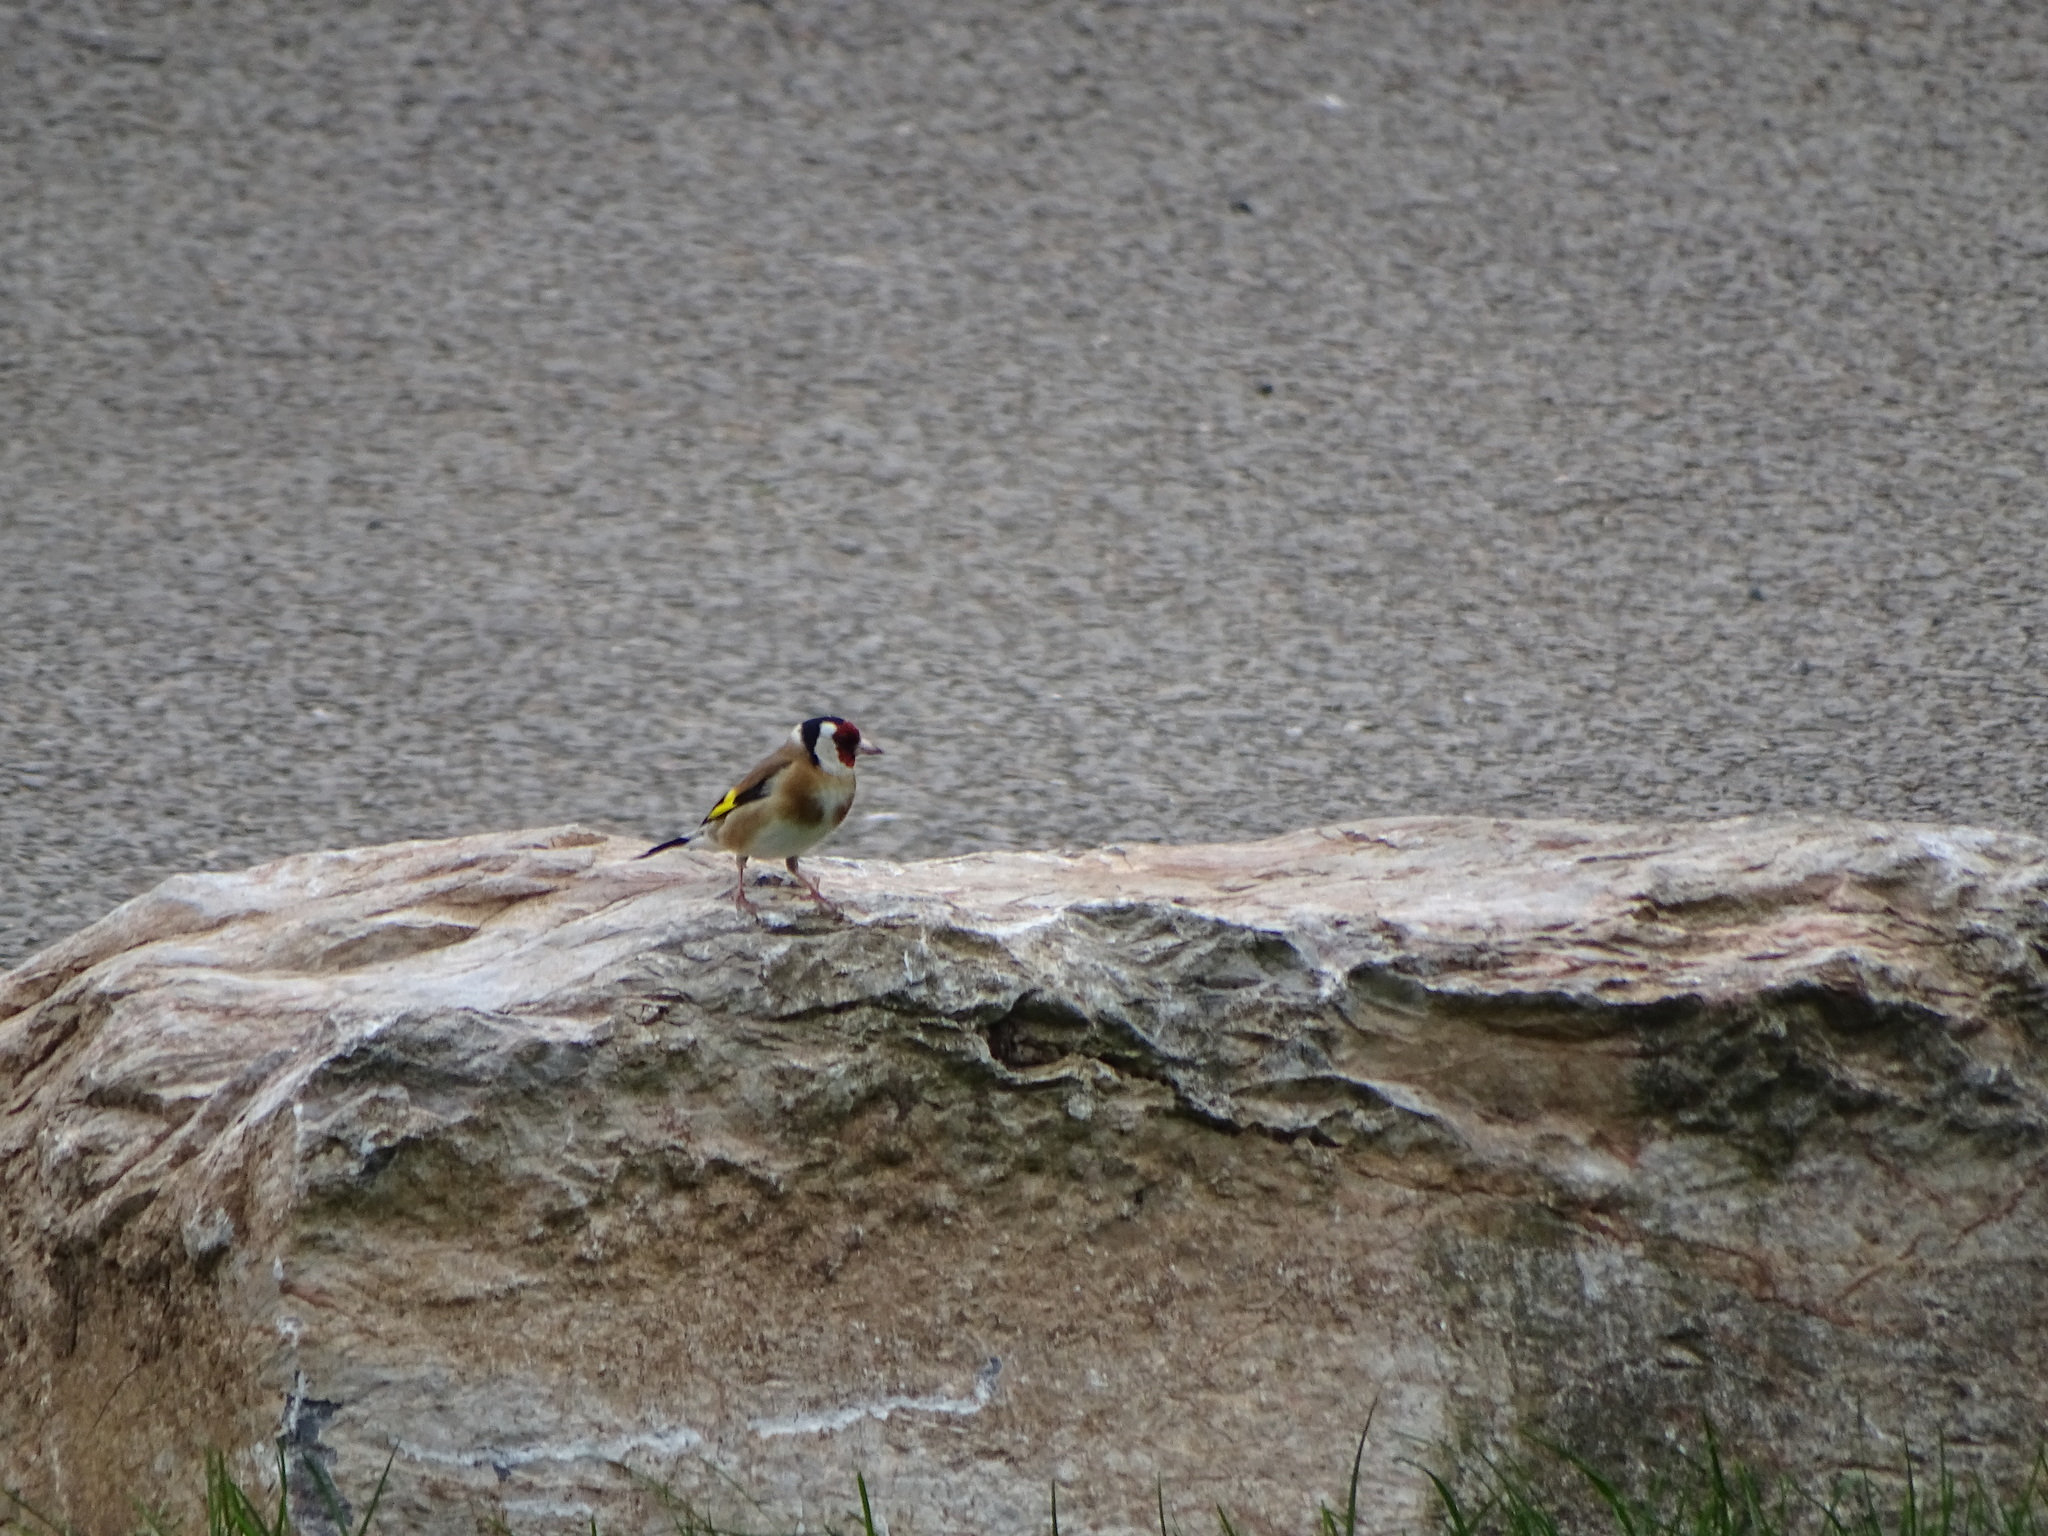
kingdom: Animalia
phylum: Chordata
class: Aves
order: Passeriformes
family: Fringillidae
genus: Carduelis
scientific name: Carduelis carduelis
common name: European goldfinch
